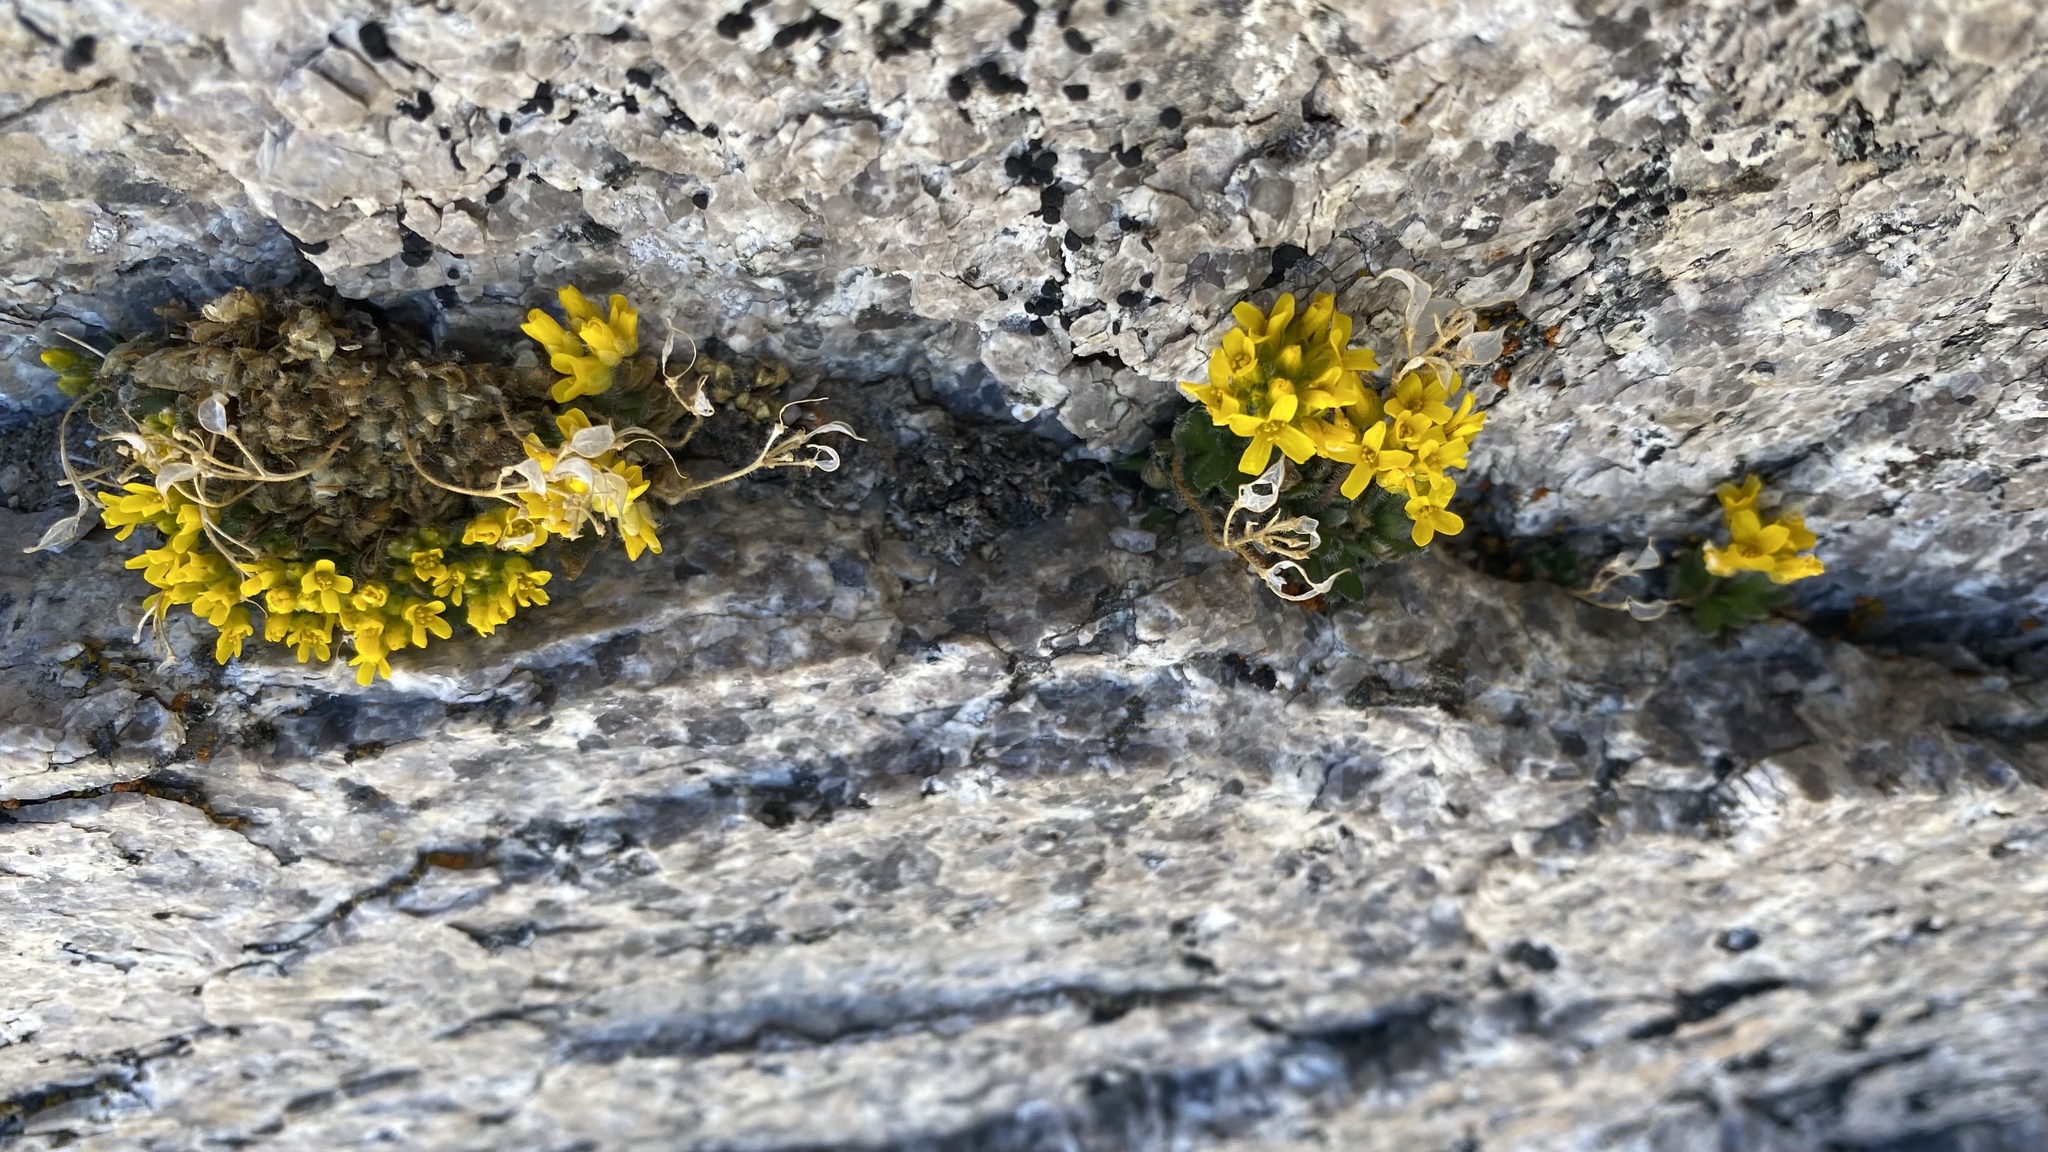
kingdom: Plantae
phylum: Tracheophyta
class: Magnoliopsida
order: Brassicales
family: Brassicaceae
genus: Draba
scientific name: Draba lemmonii
